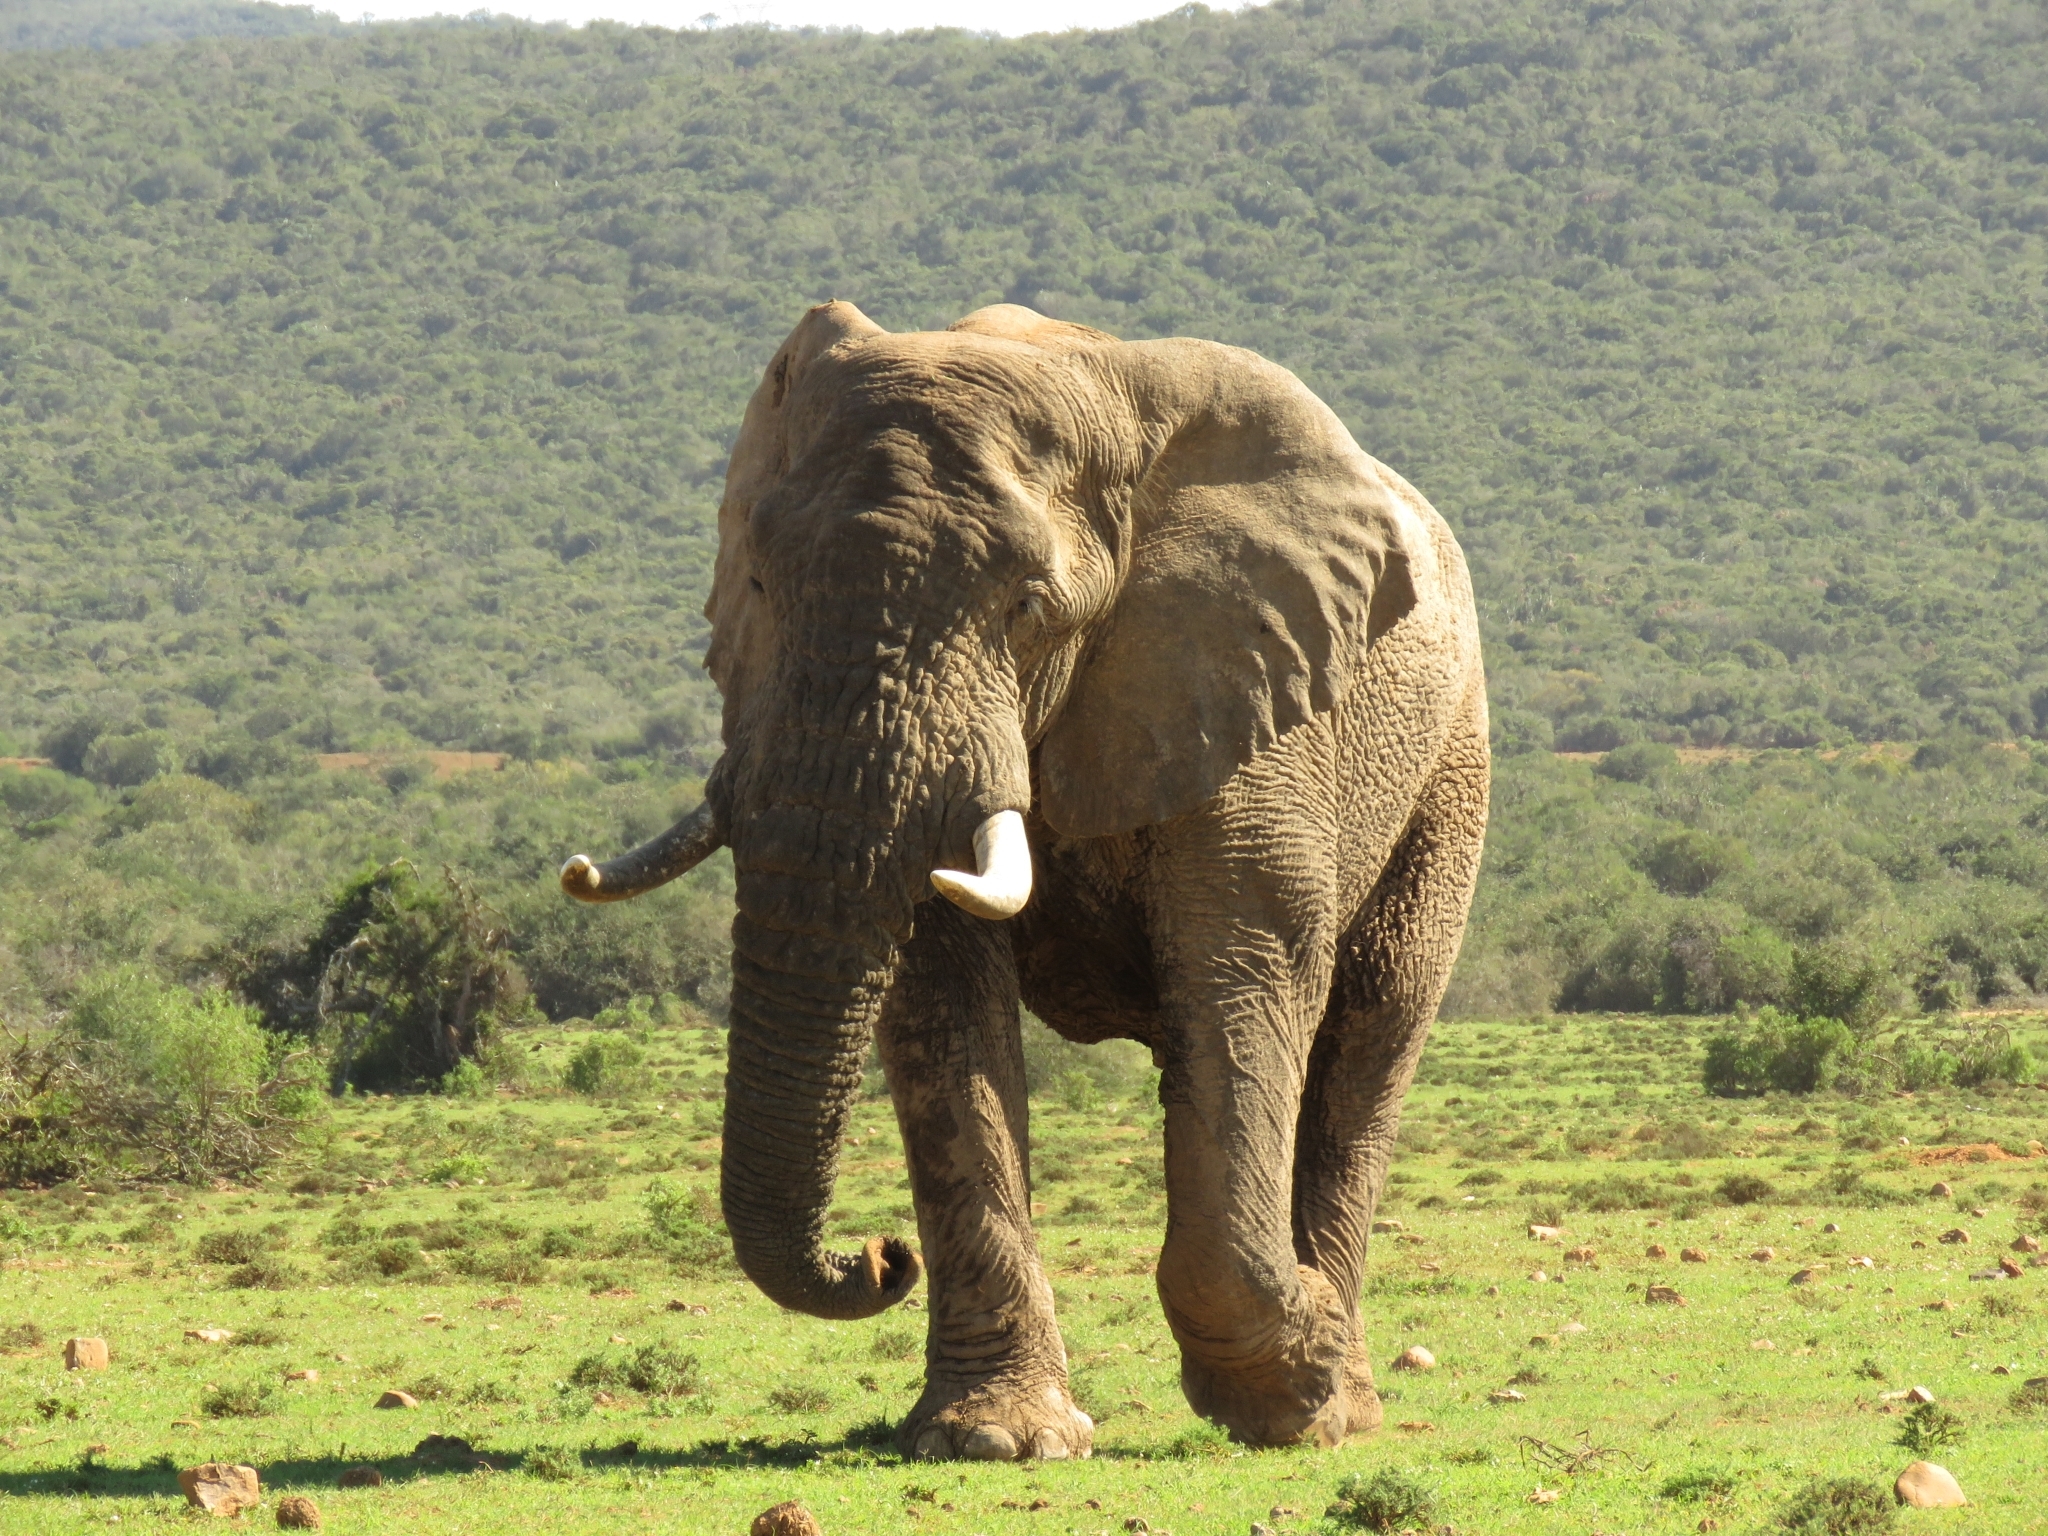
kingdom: Animalia
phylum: Chordata
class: Mammalia
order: Proboscidea
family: Elephantidae
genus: Loxodonta
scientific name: Loxodonta africana
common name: African elephant
